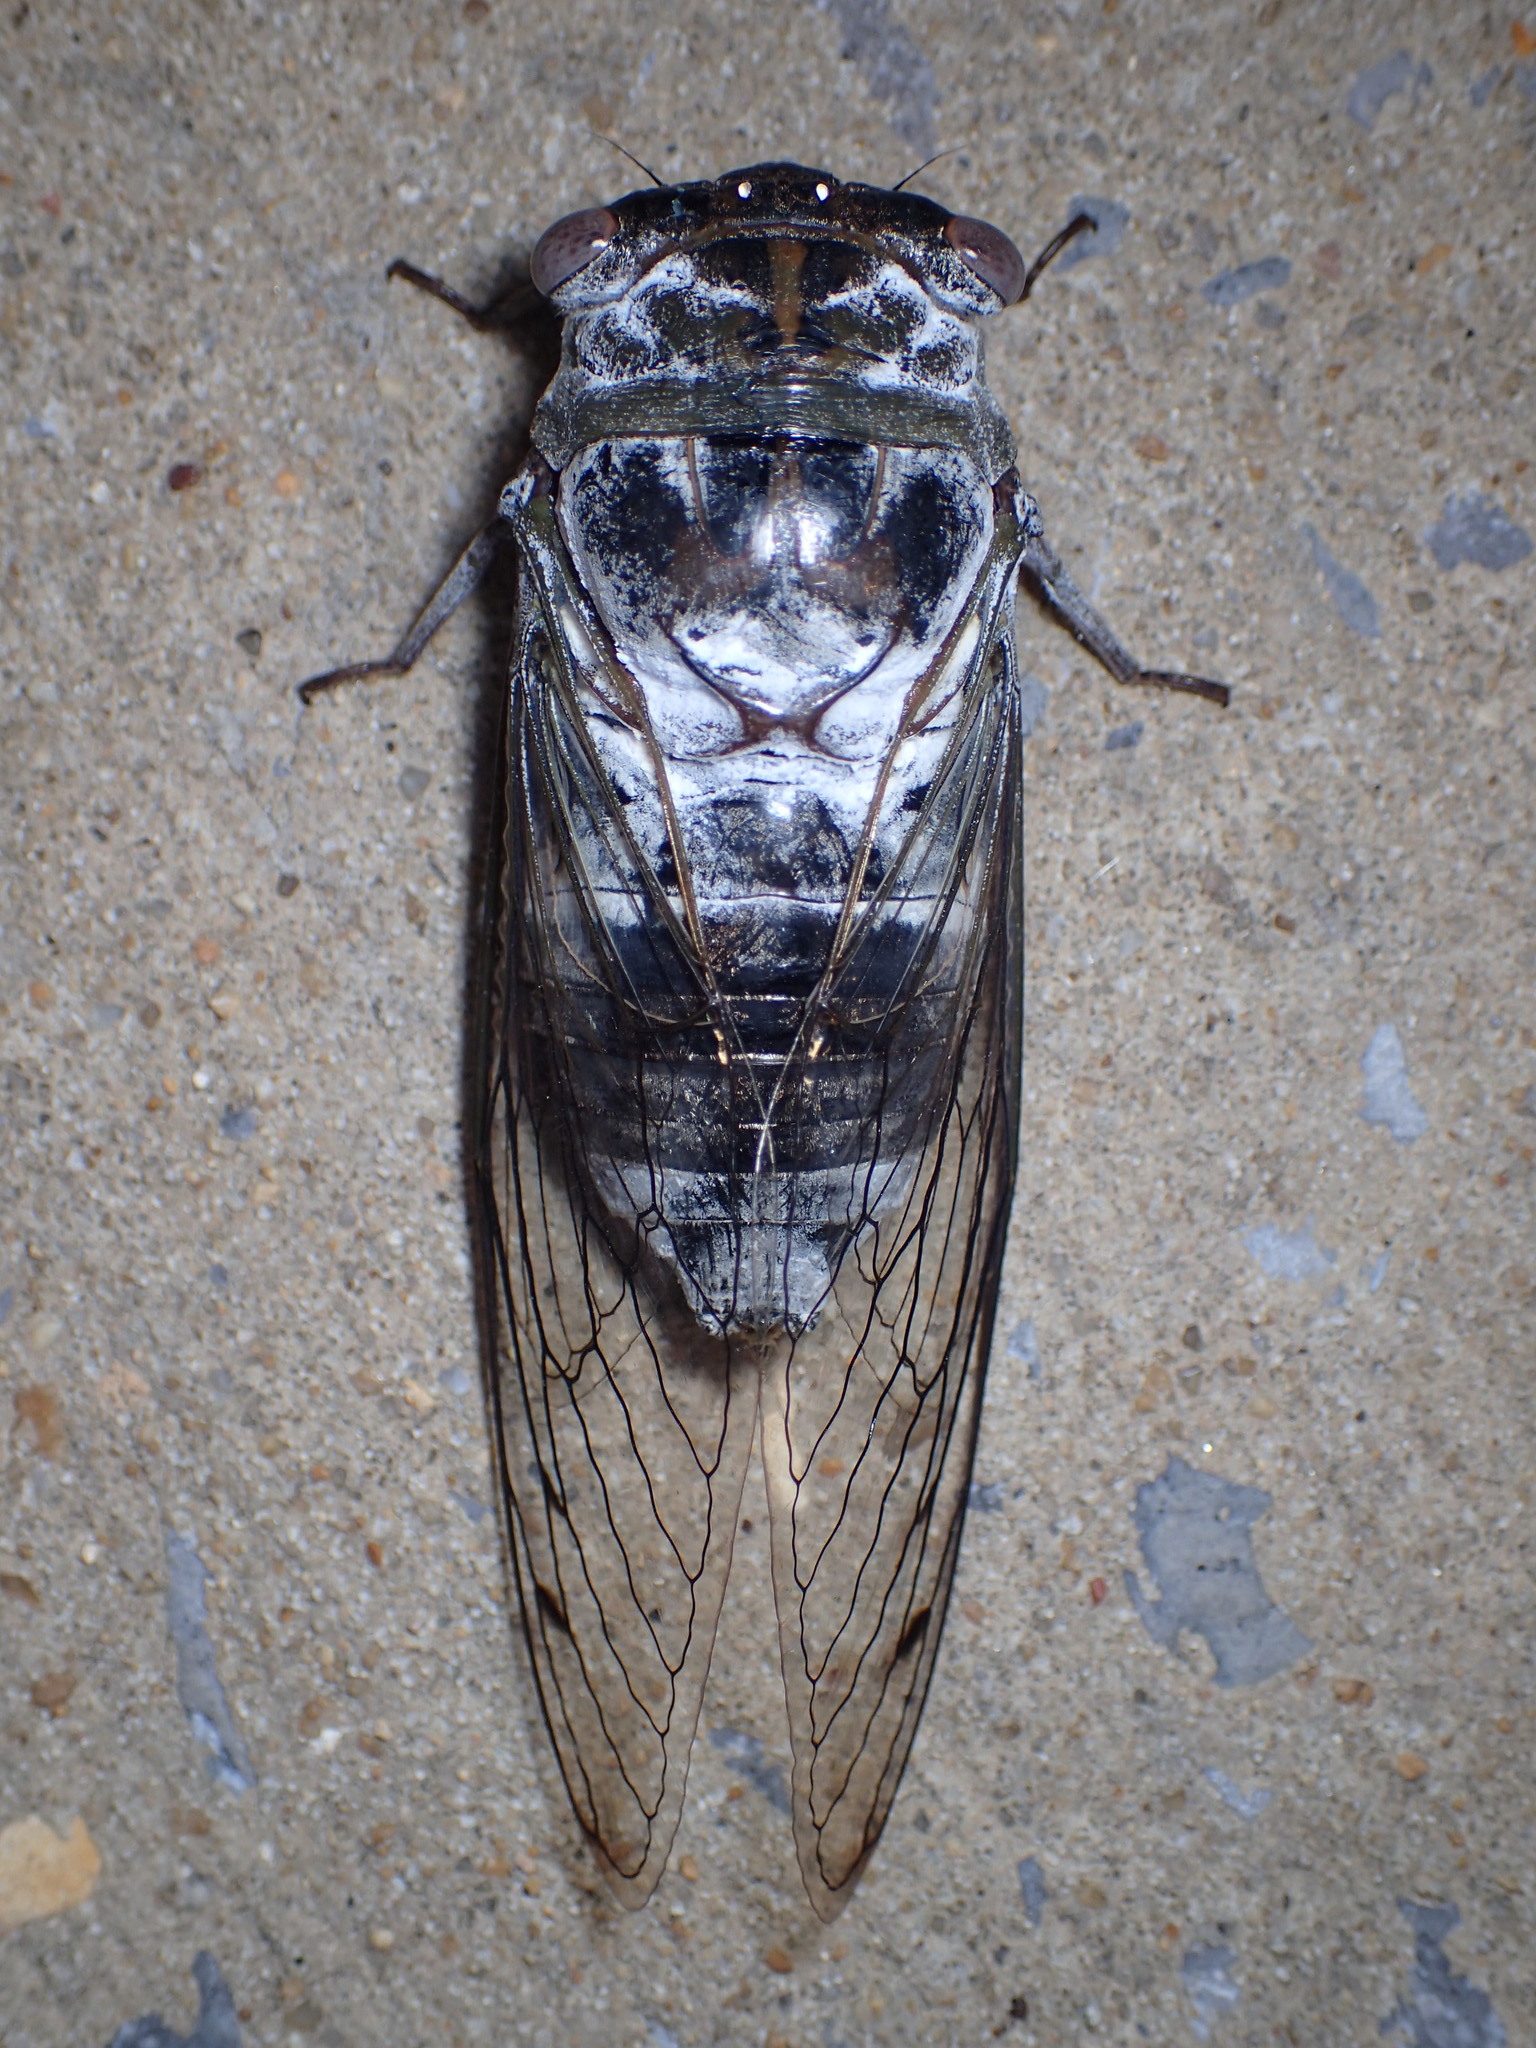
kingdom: Animalia
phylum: Arthropoda
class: Insecta
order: Hemiptera
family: Cicadidae
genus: Diceroprocta
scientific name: Diceroprocta grossa
